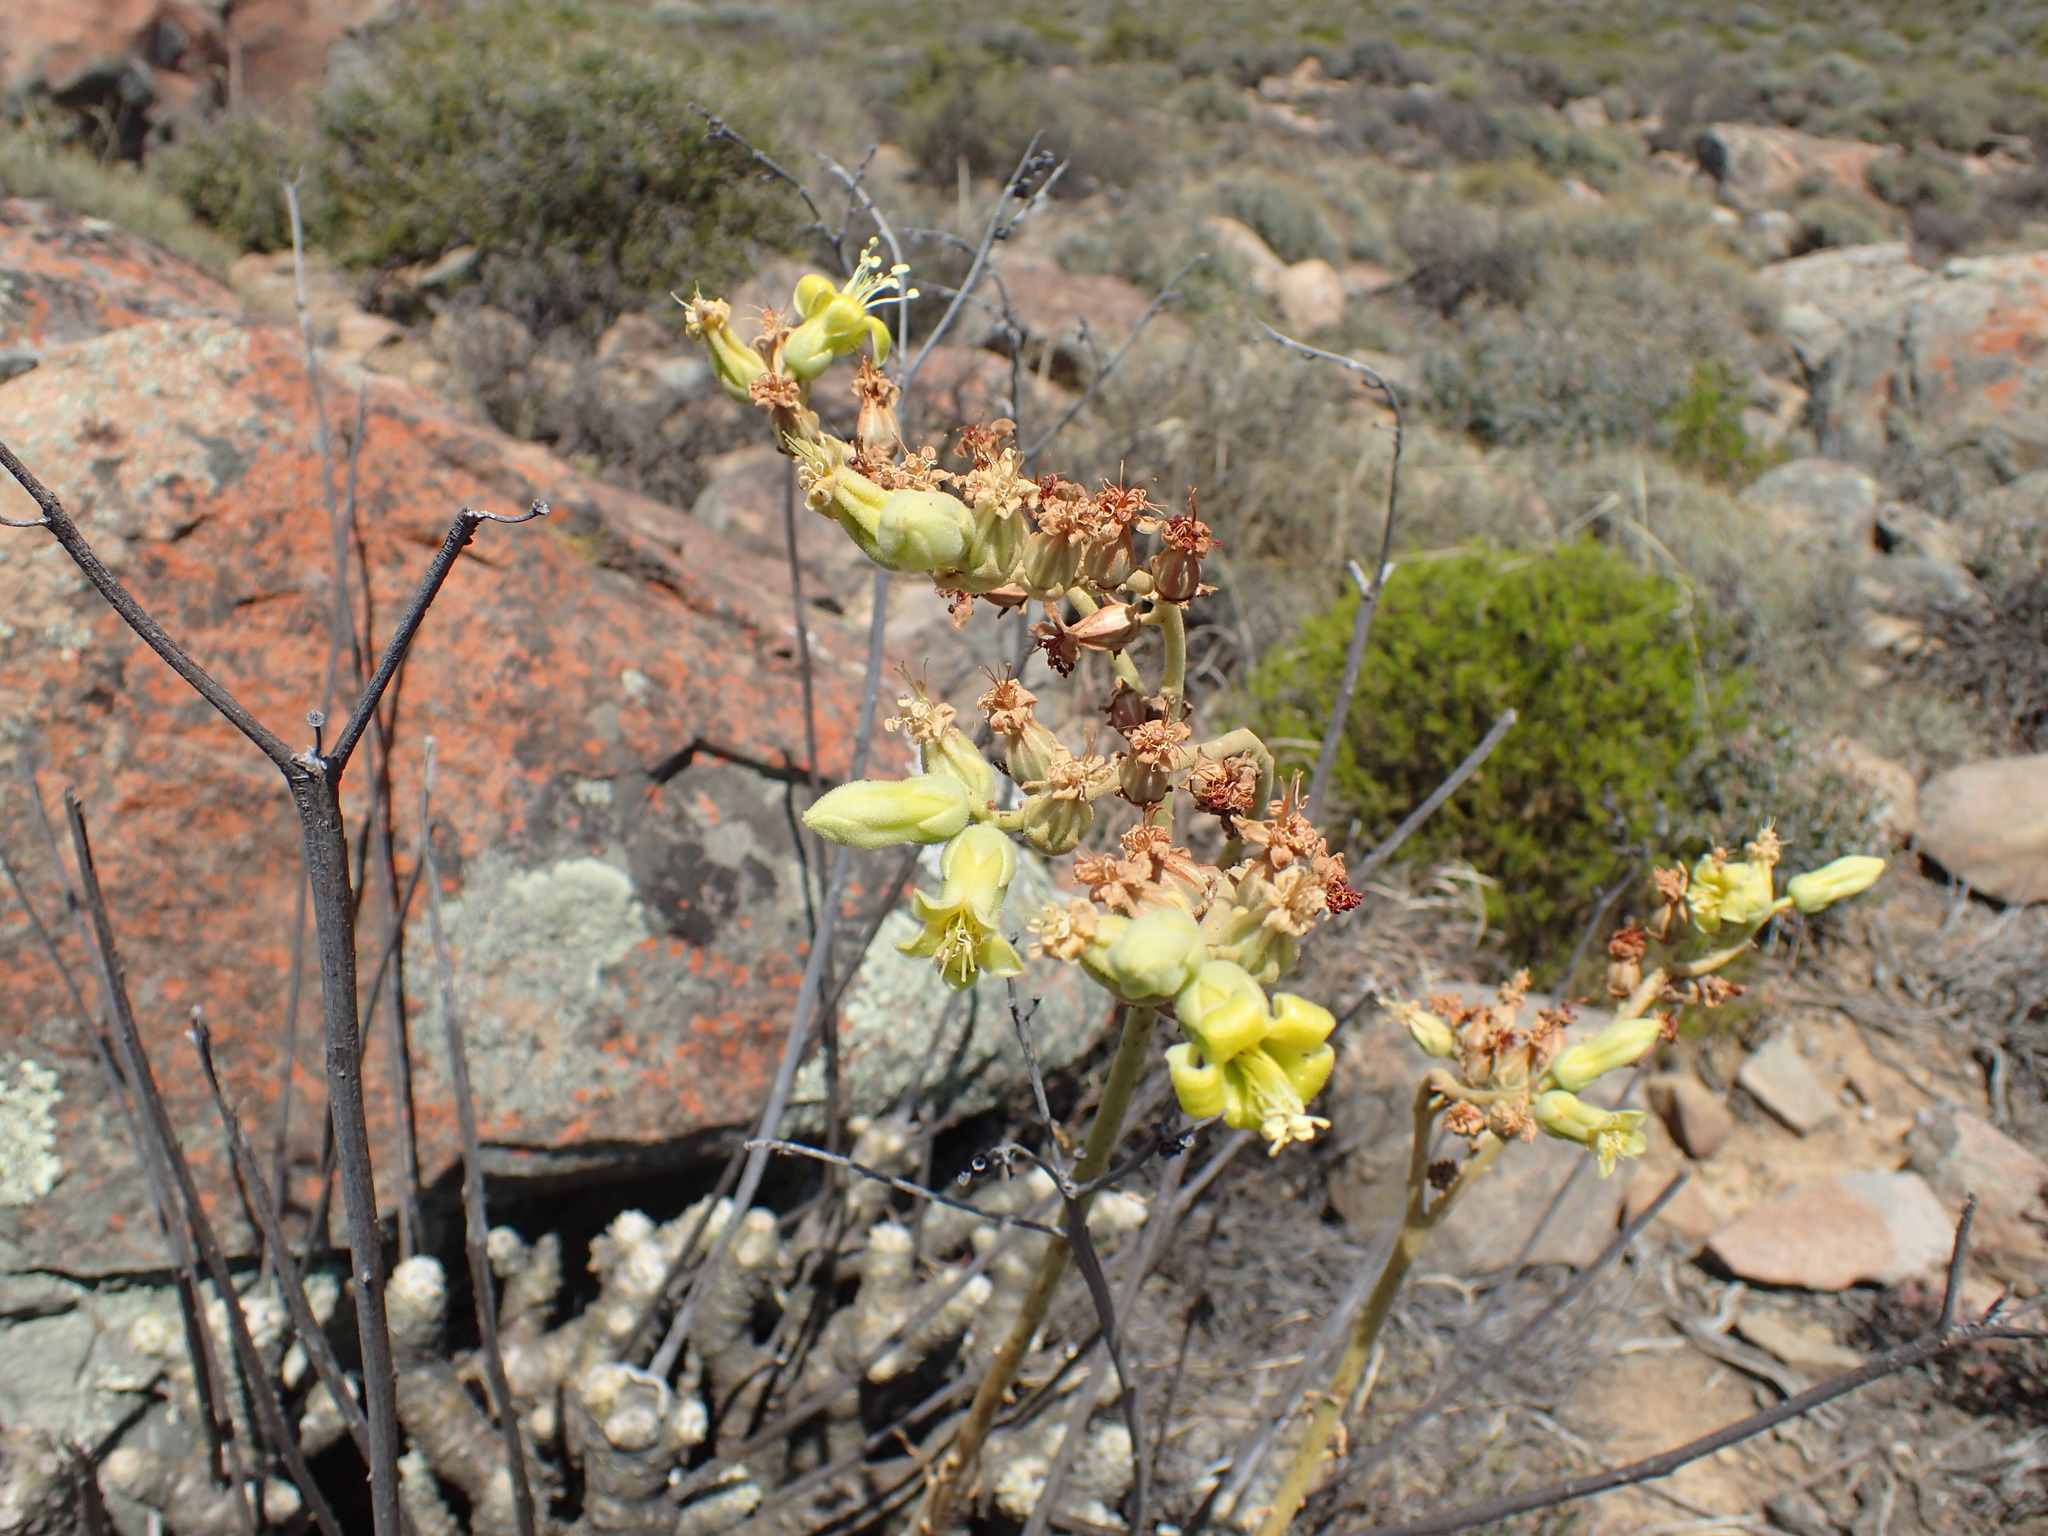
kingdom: Plantae
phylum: Tracheophyta
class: Magnoliopsida
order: Saxifragales
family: Crassulaceae
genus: Tylecodon
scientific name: Tylecodon wallichii
